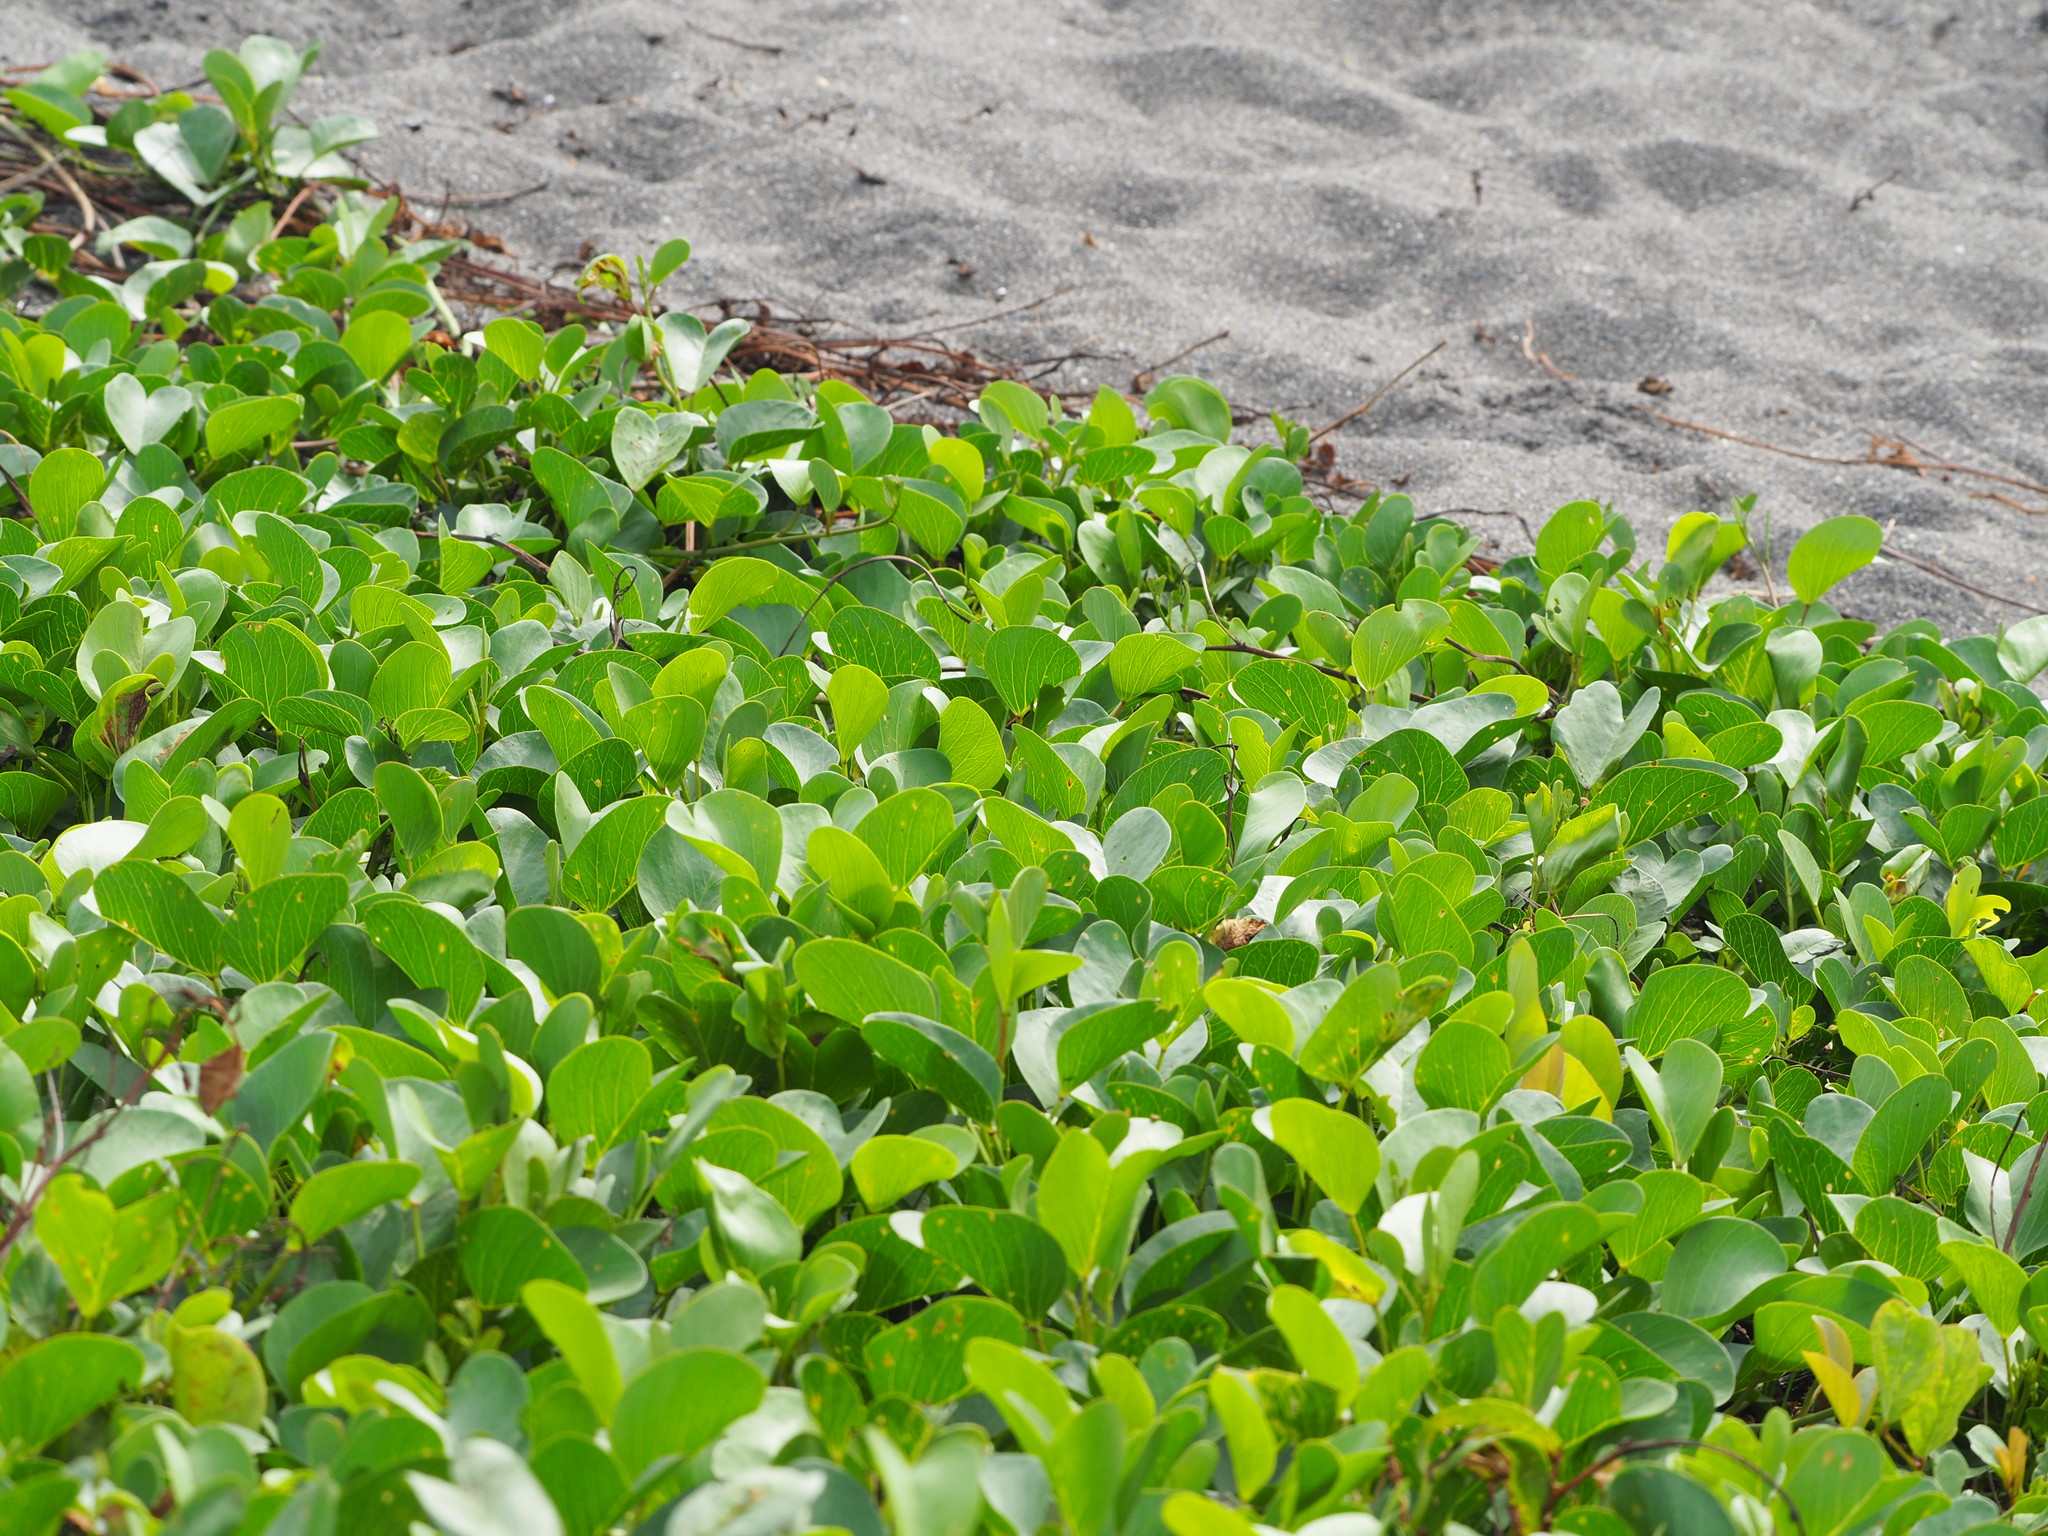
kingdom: Plantae
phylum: Tracheophyta
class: Magnoliopsida
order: Solanales
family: Convolvulaceae
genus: Ipomoea
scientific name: Ipomoea pes-caprae
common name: Beach morning glory
